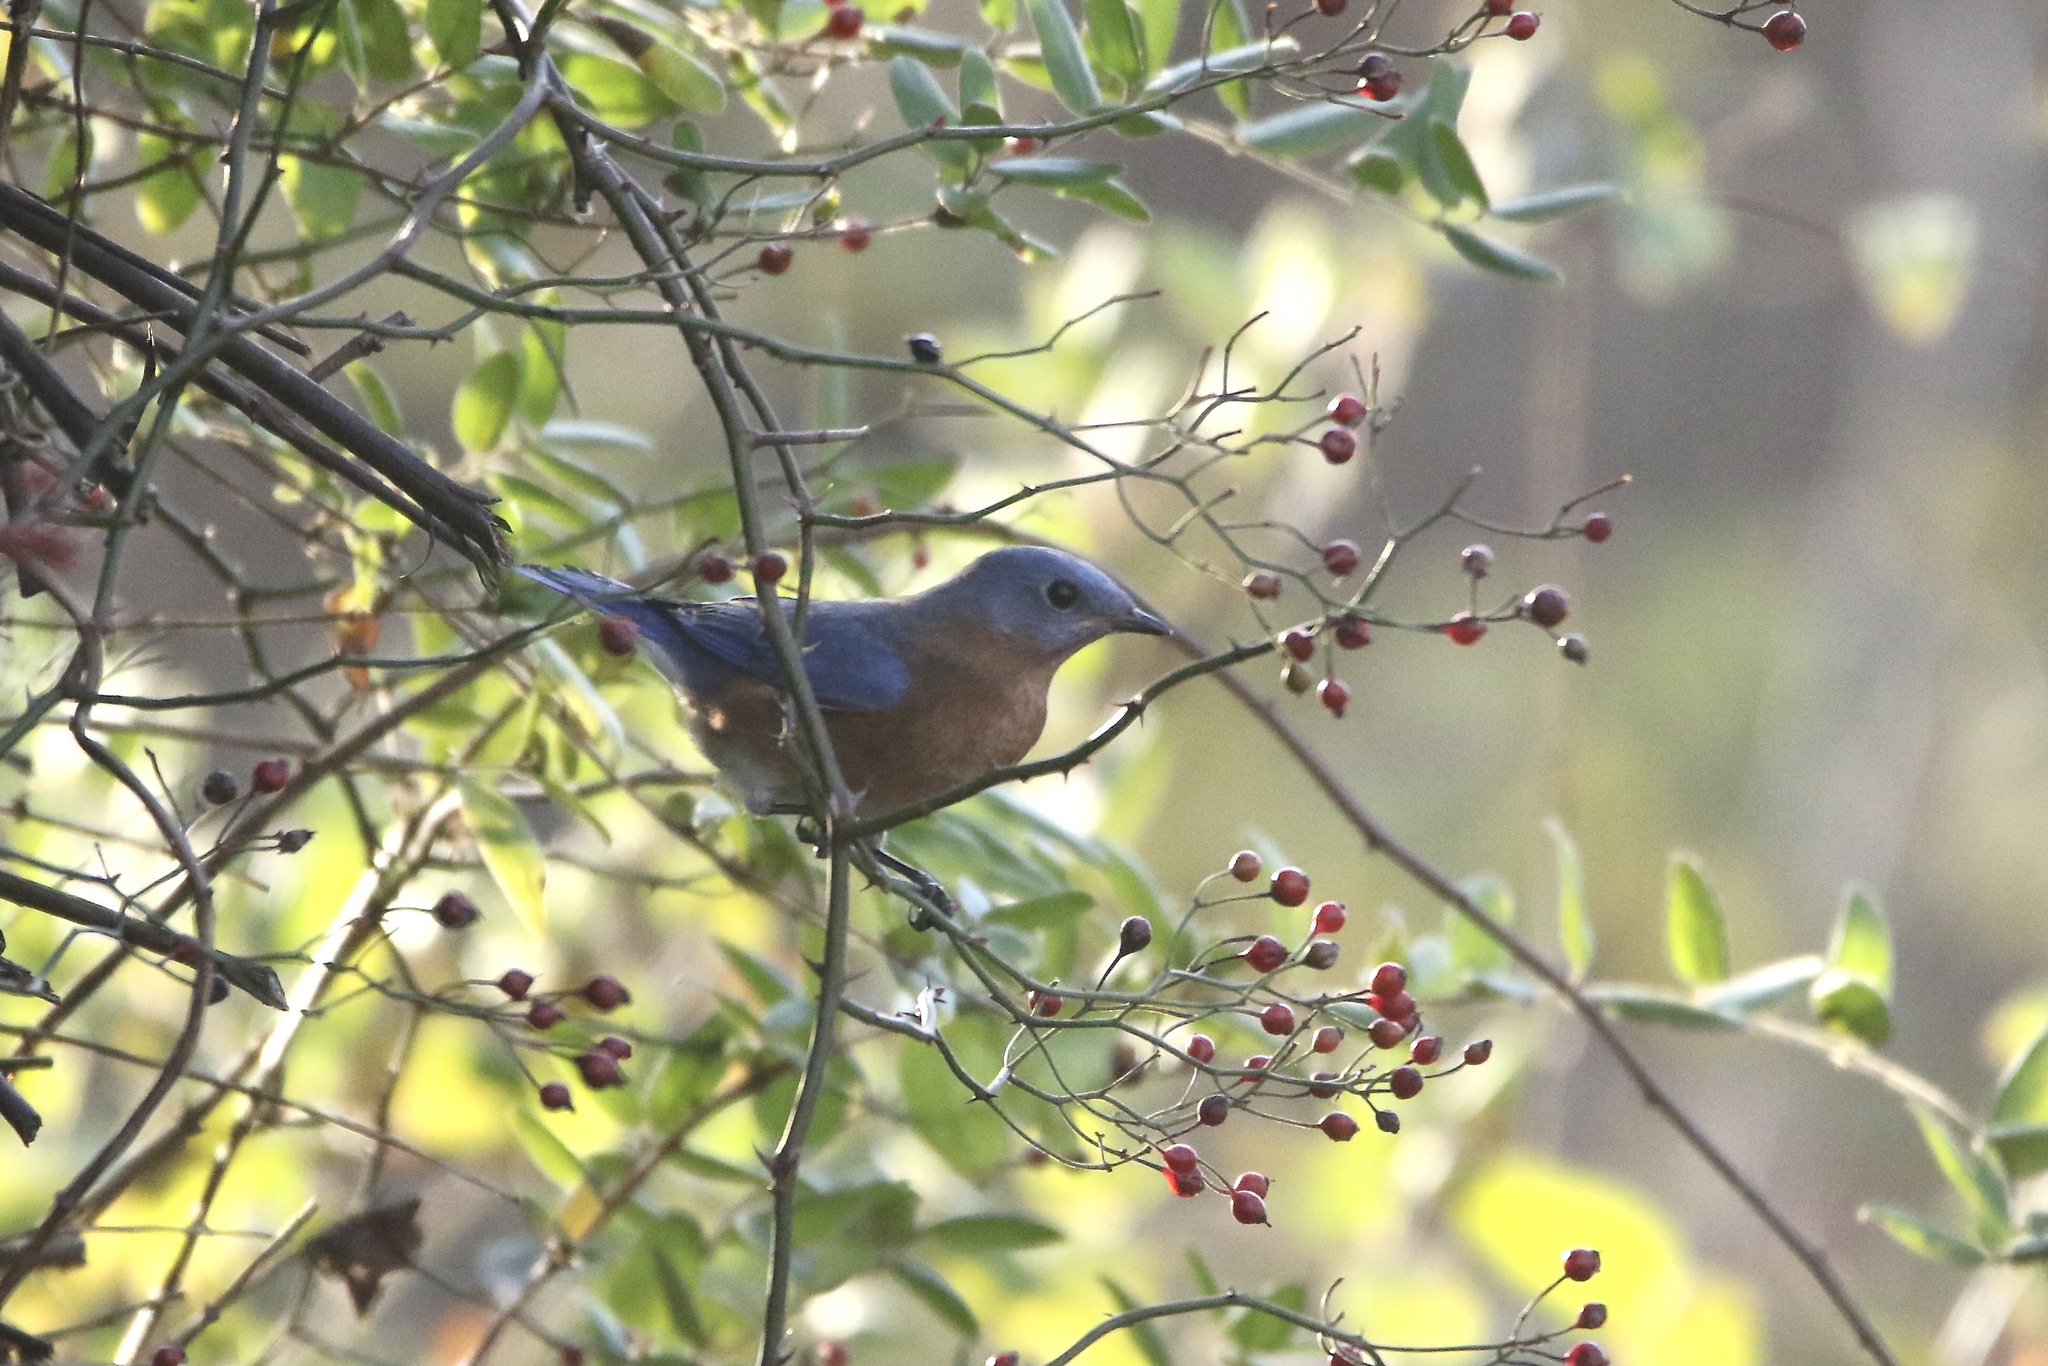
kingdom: Animalia
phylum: Chordata
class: Aves
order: Passeriformes
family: Turdidae
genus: Sialia
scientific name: Sialia sialis
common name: Eastern bluebird
